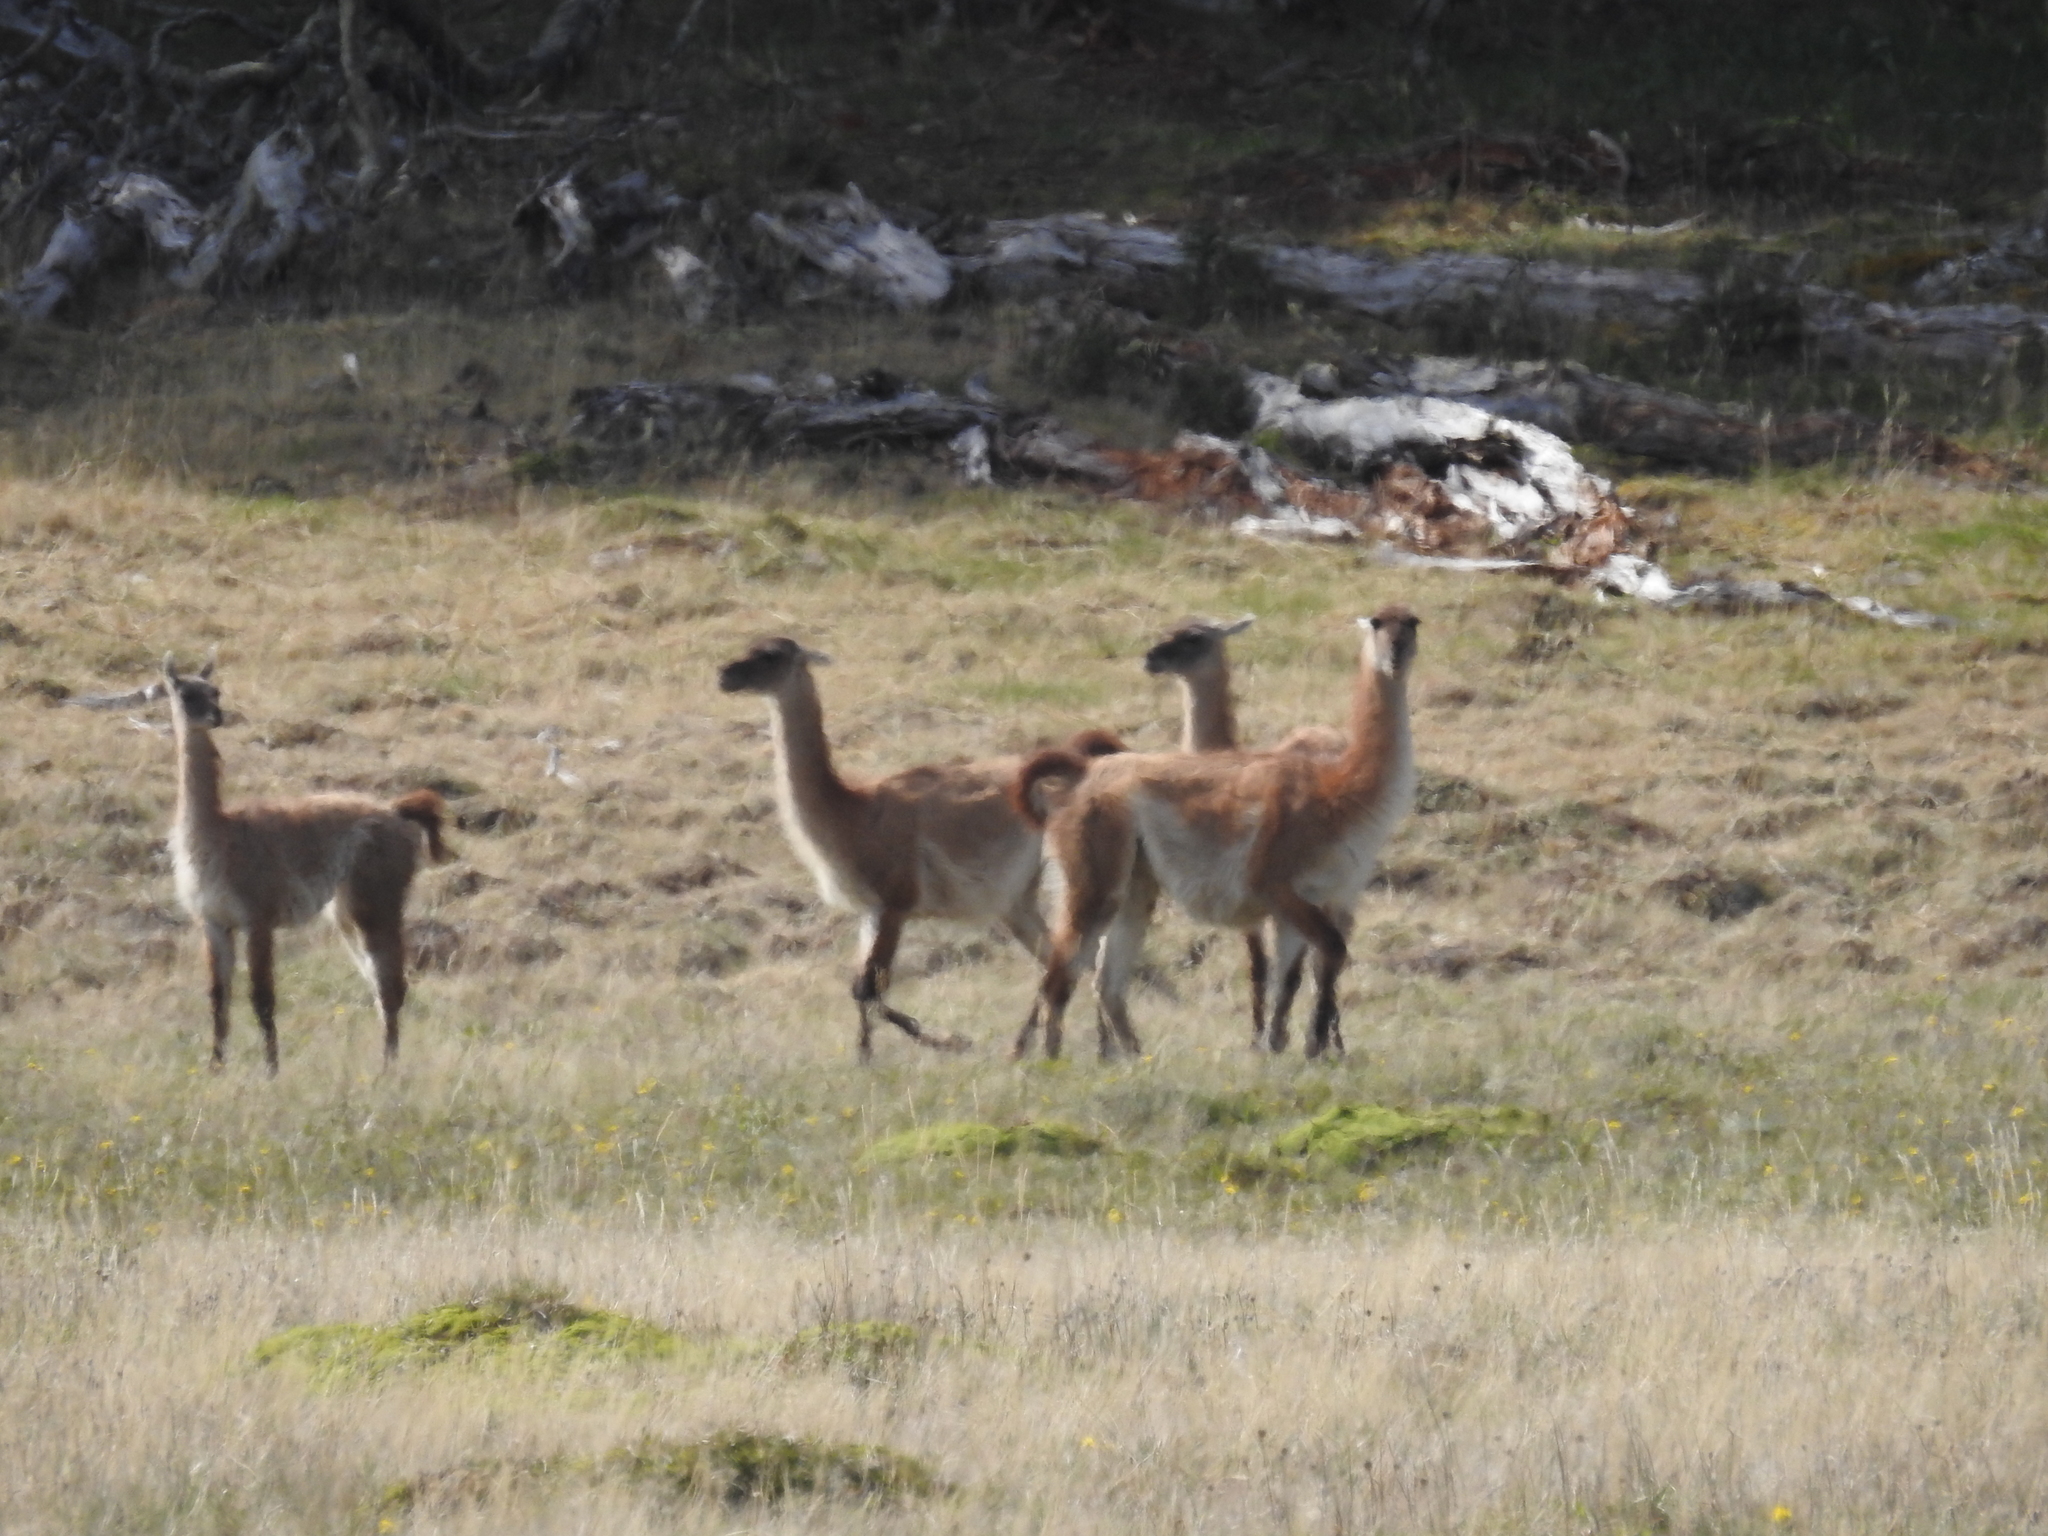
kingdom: Animalia
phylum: Chordata
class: Mammalia
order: Artiodactyla
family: Camelidae
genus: Lama
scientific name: Lama glama
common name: Llama
